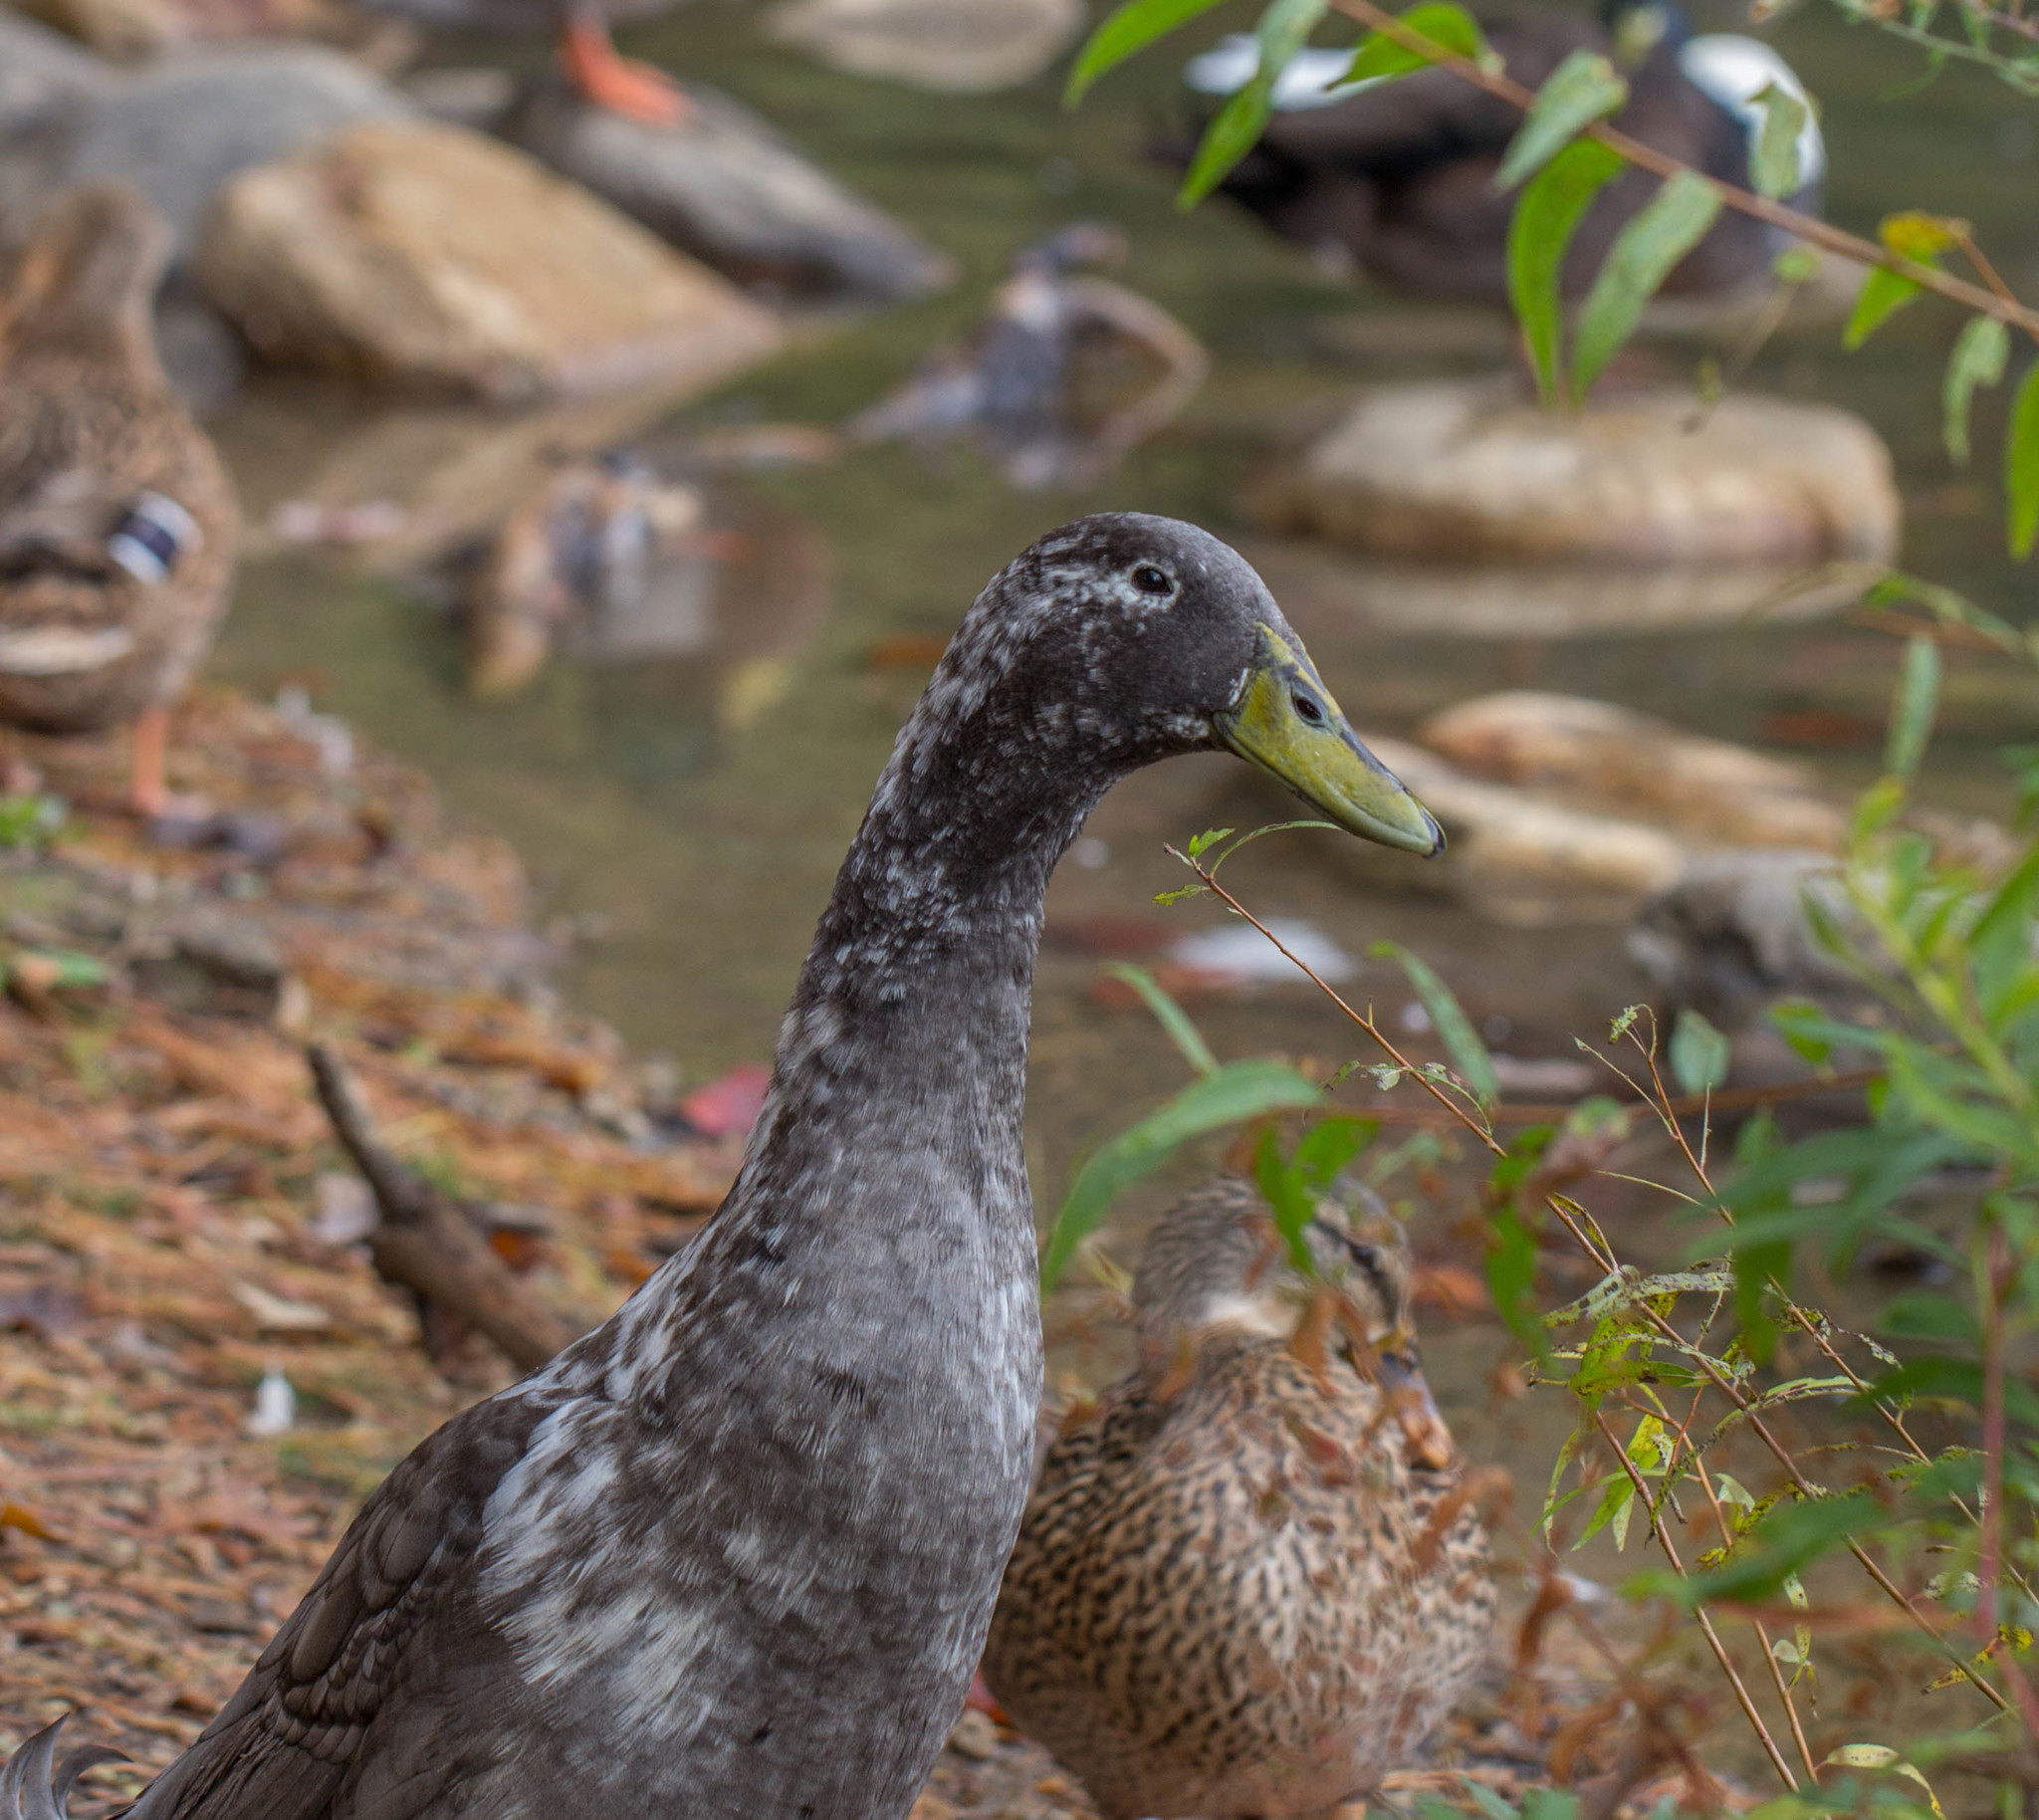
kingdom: Animalia
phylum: Chordata
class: Aves
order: Anseriformes
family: Anatidae
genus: Anas
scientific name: Anas platyrhynchos
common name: Mallard
